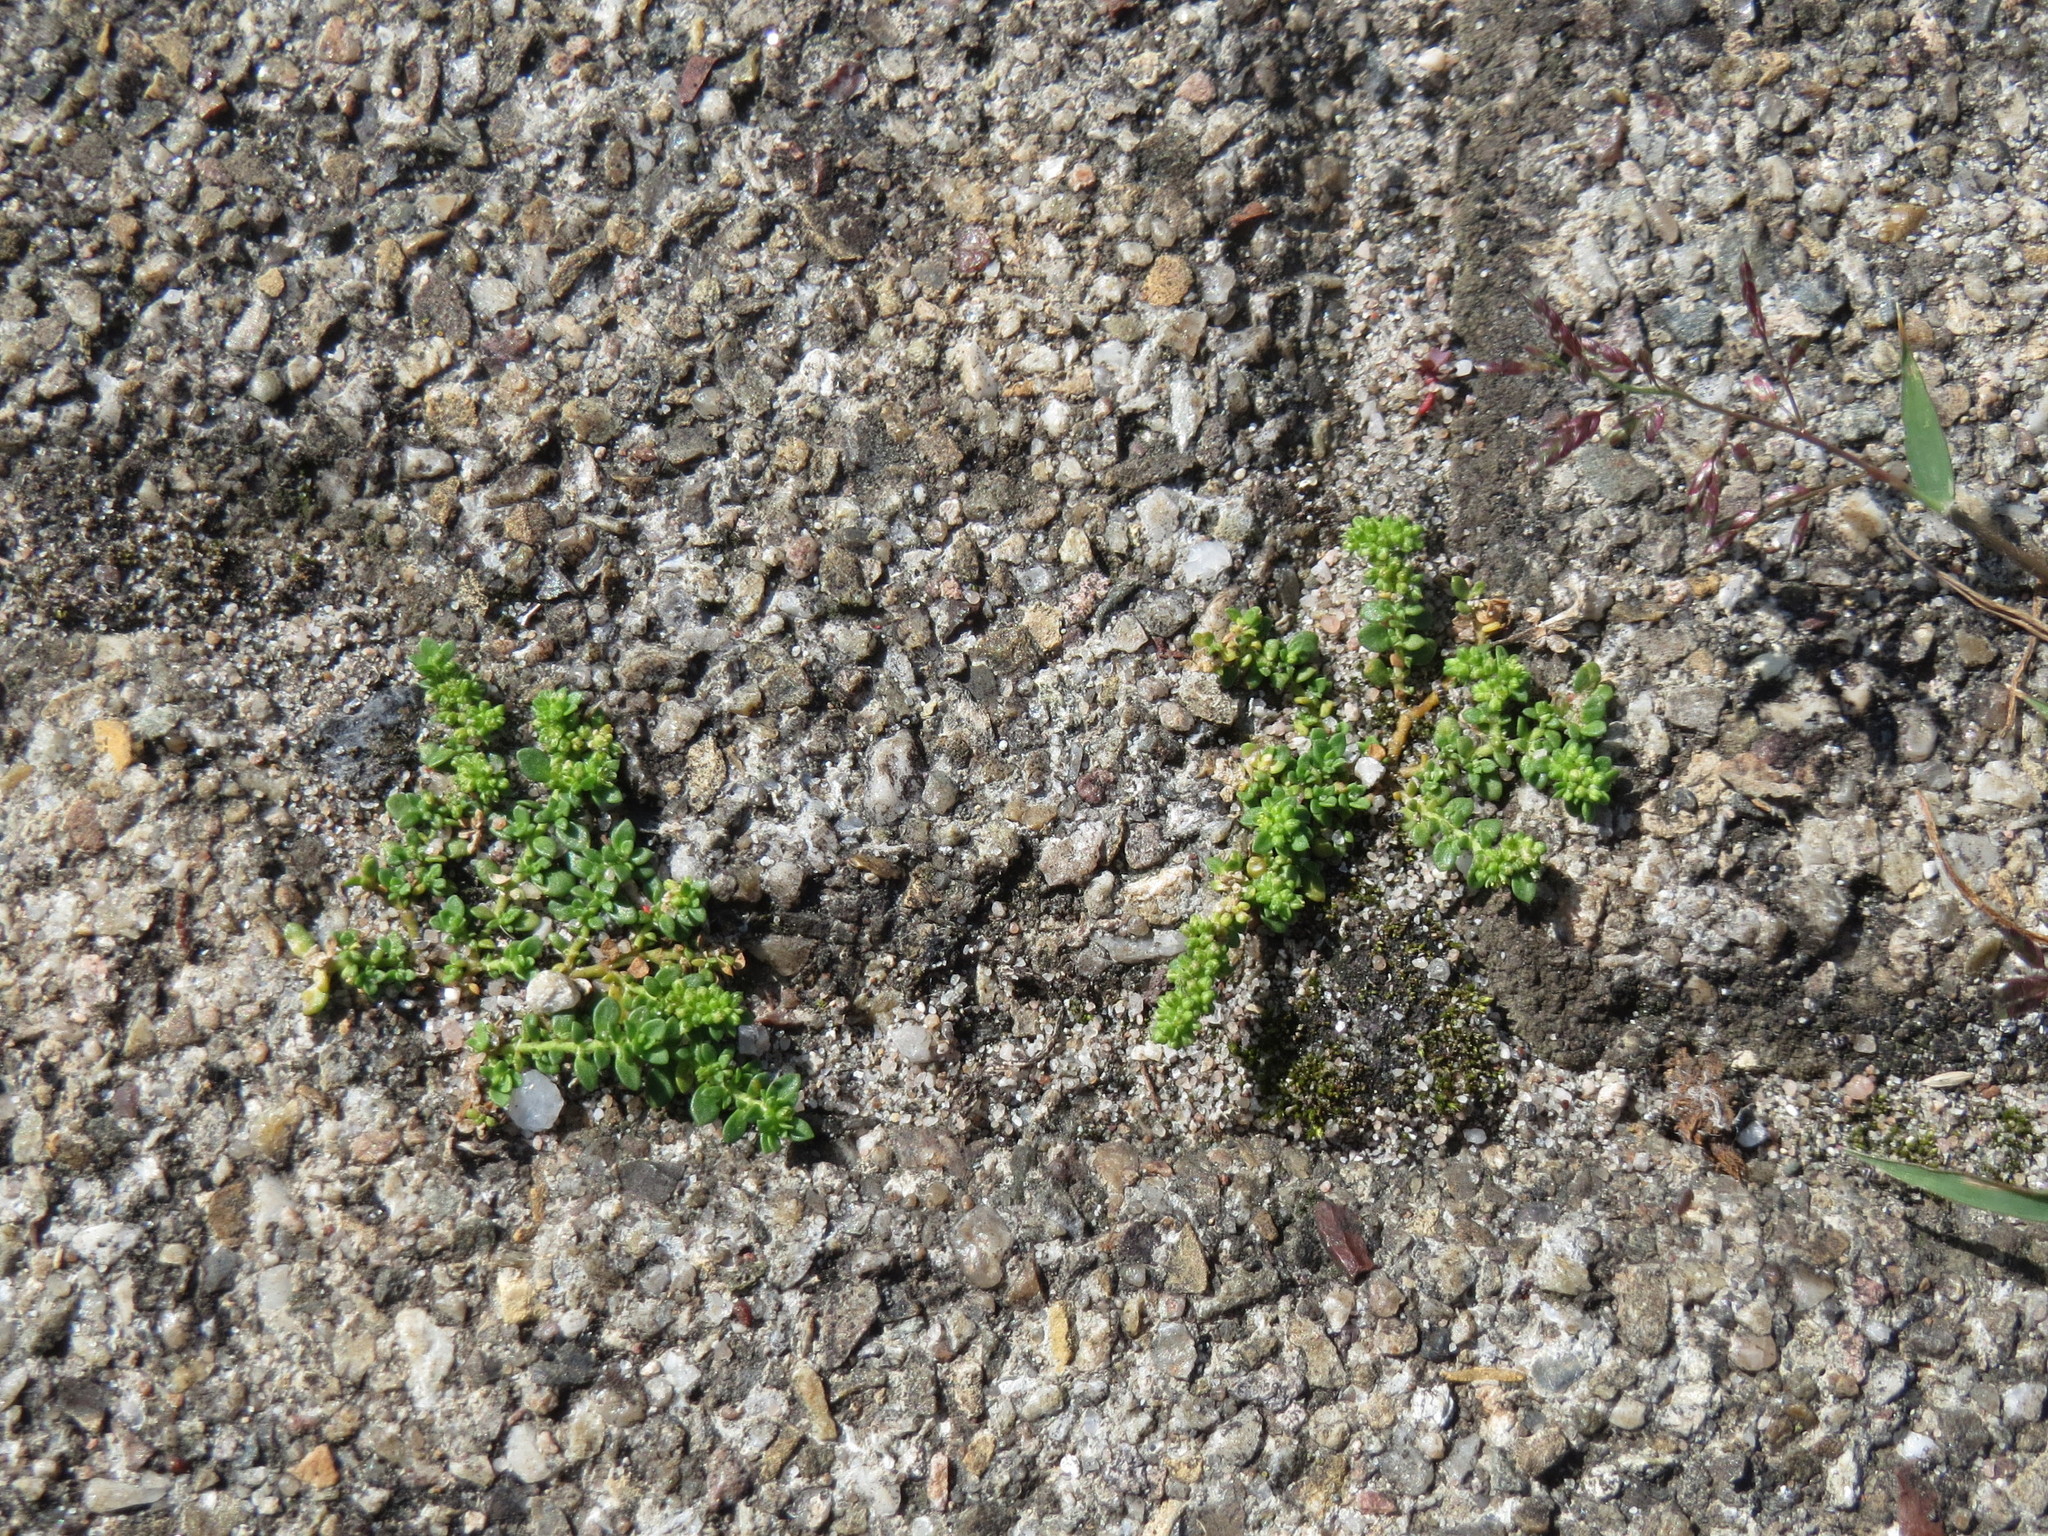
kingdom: Plantae
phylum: Tracheophyta
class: Magnoliopsida
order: Caryophyllales
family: Caryophyllaceae
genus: Herniaria
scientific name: Herniaria glabra
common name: Smooth rupturewort
